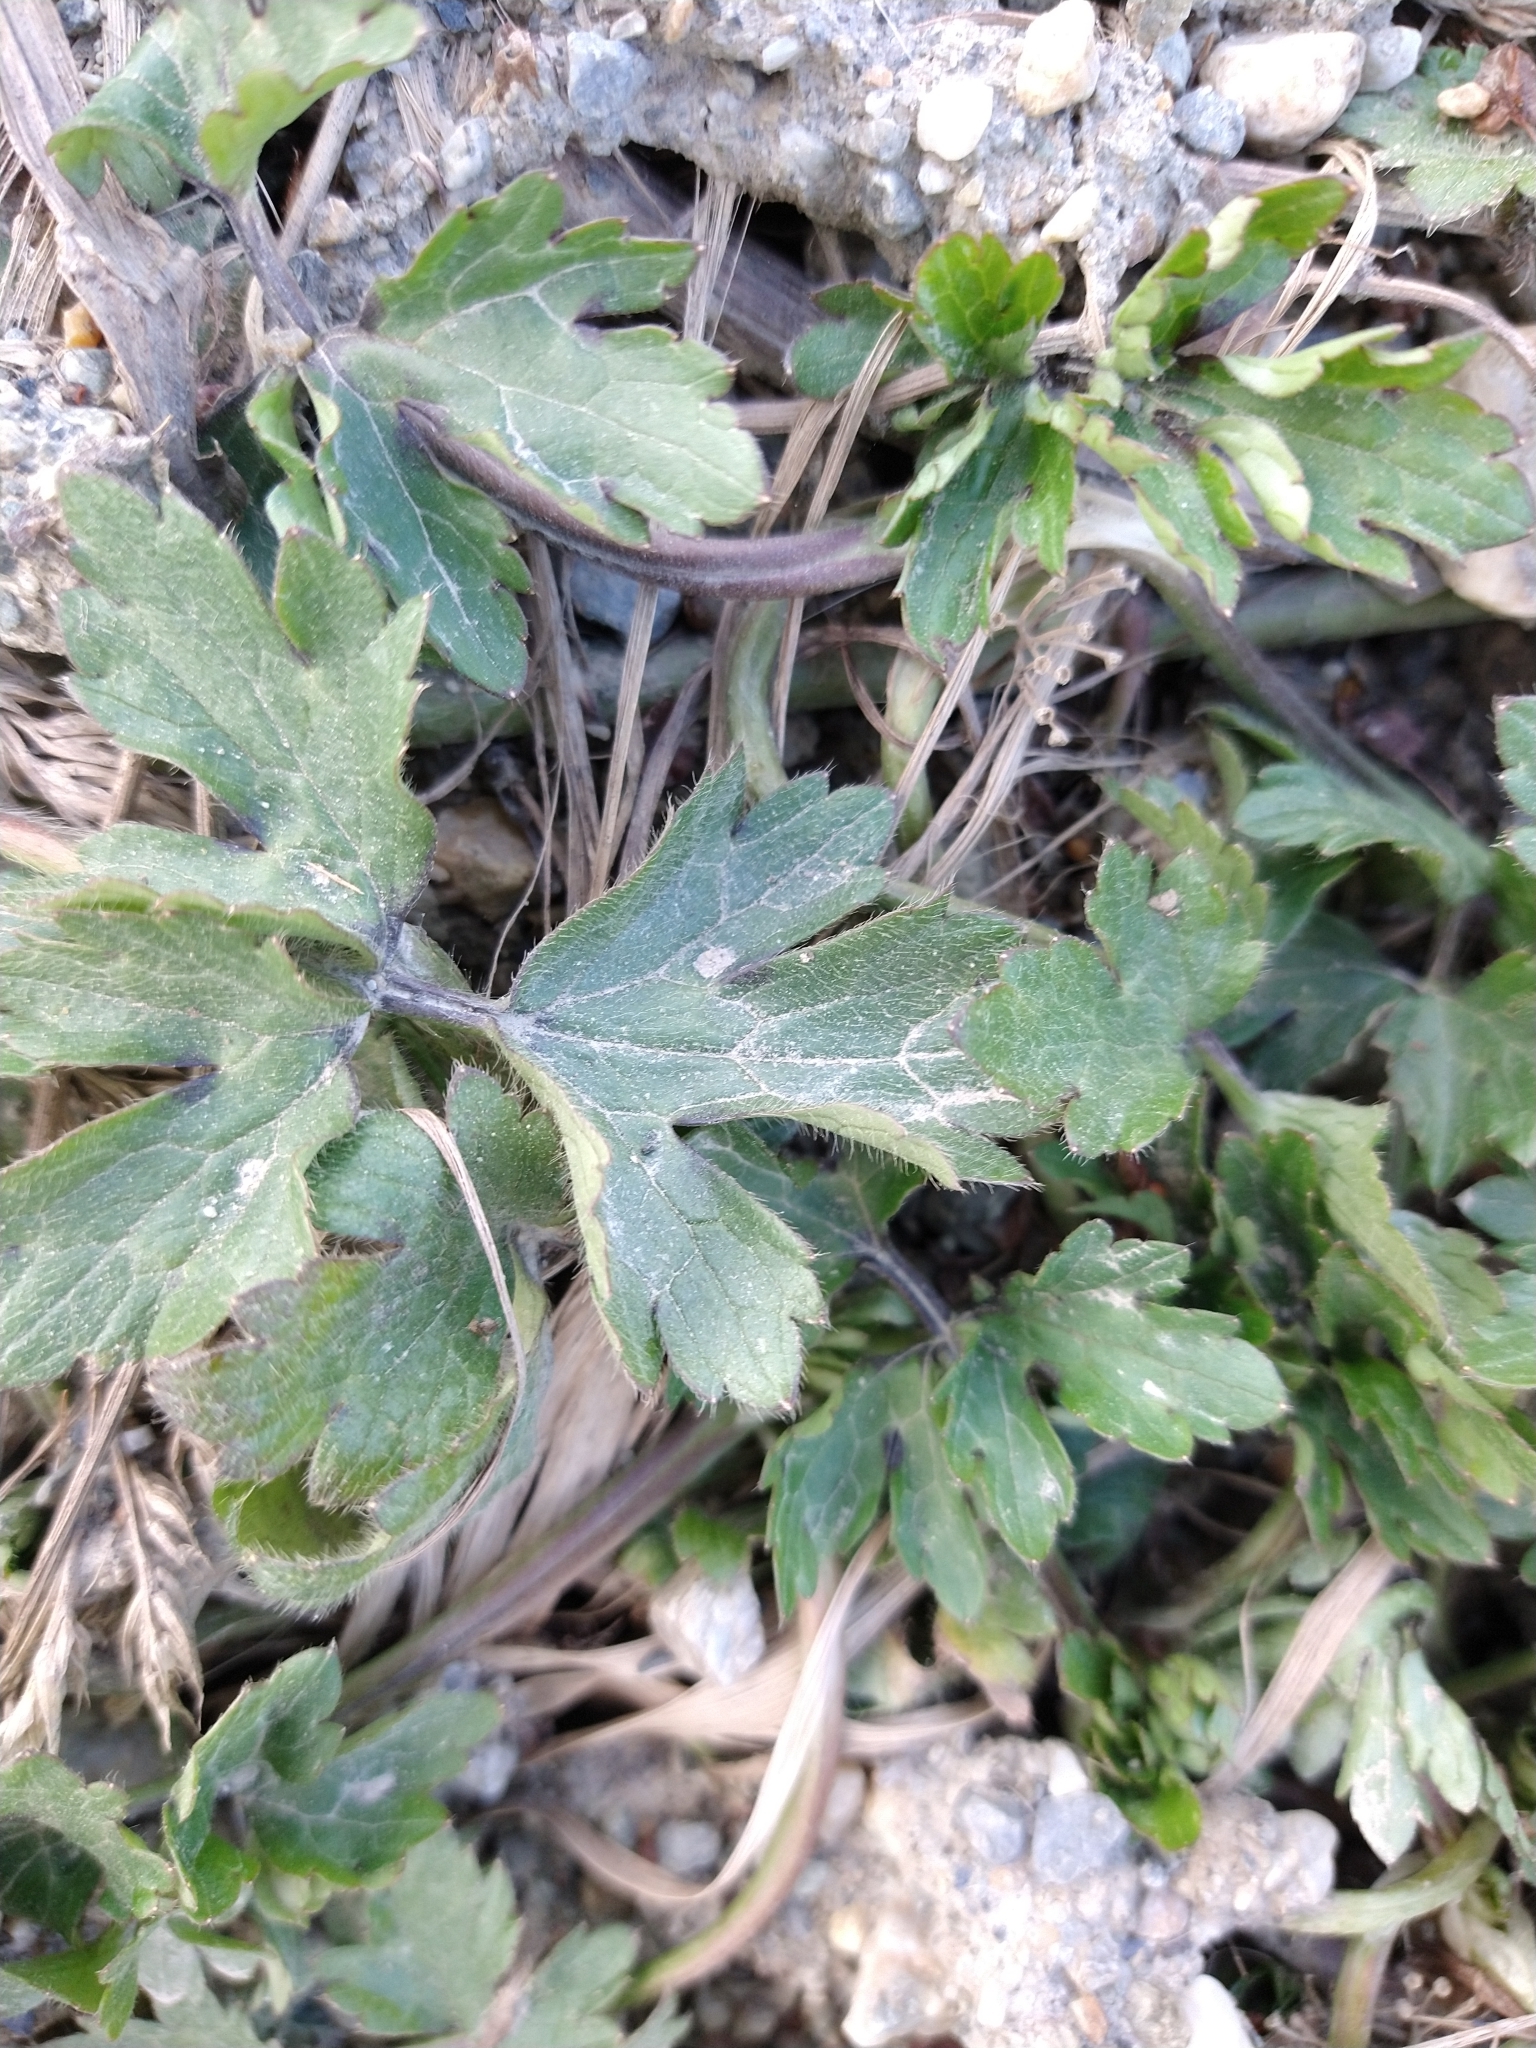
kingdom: Plantae
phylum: Tracheophyta
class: Magnoliopsida
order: Ranunculales
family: Ranunculaceae
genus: Ranunculus
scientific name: Ranunculus repens
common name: Creeping buttercup
